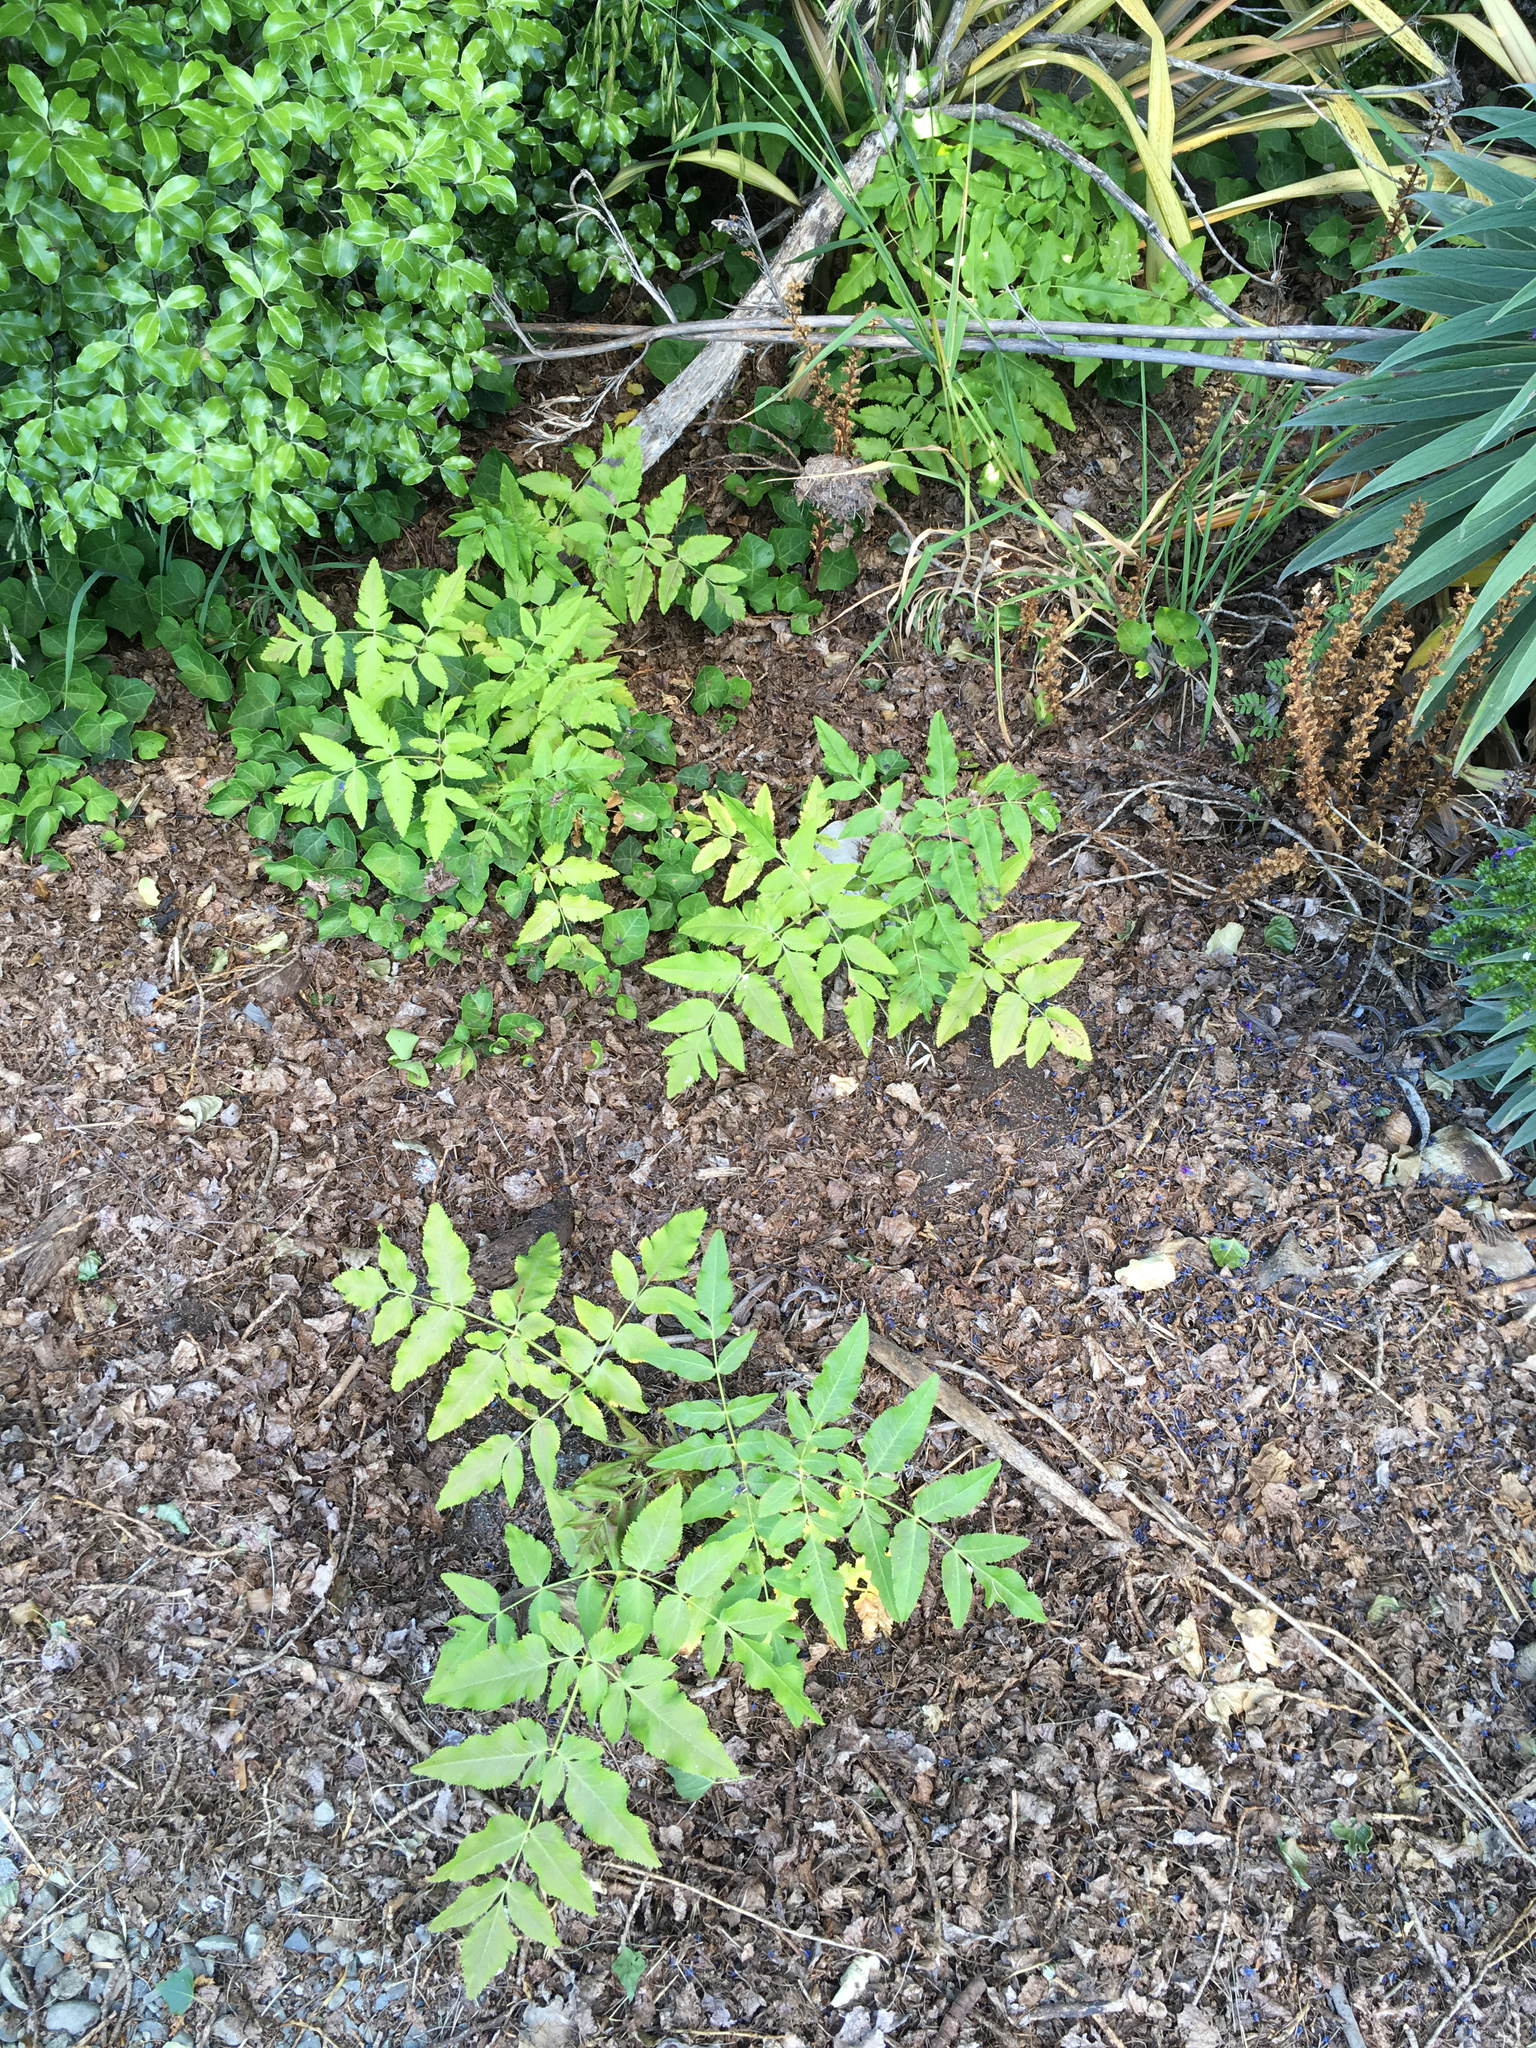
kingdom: Plantae
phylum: Tracheophyta
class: Magnoliopsida
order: Apiales
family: Apiaceae
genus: Daucus
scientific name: Daucus decipiens
